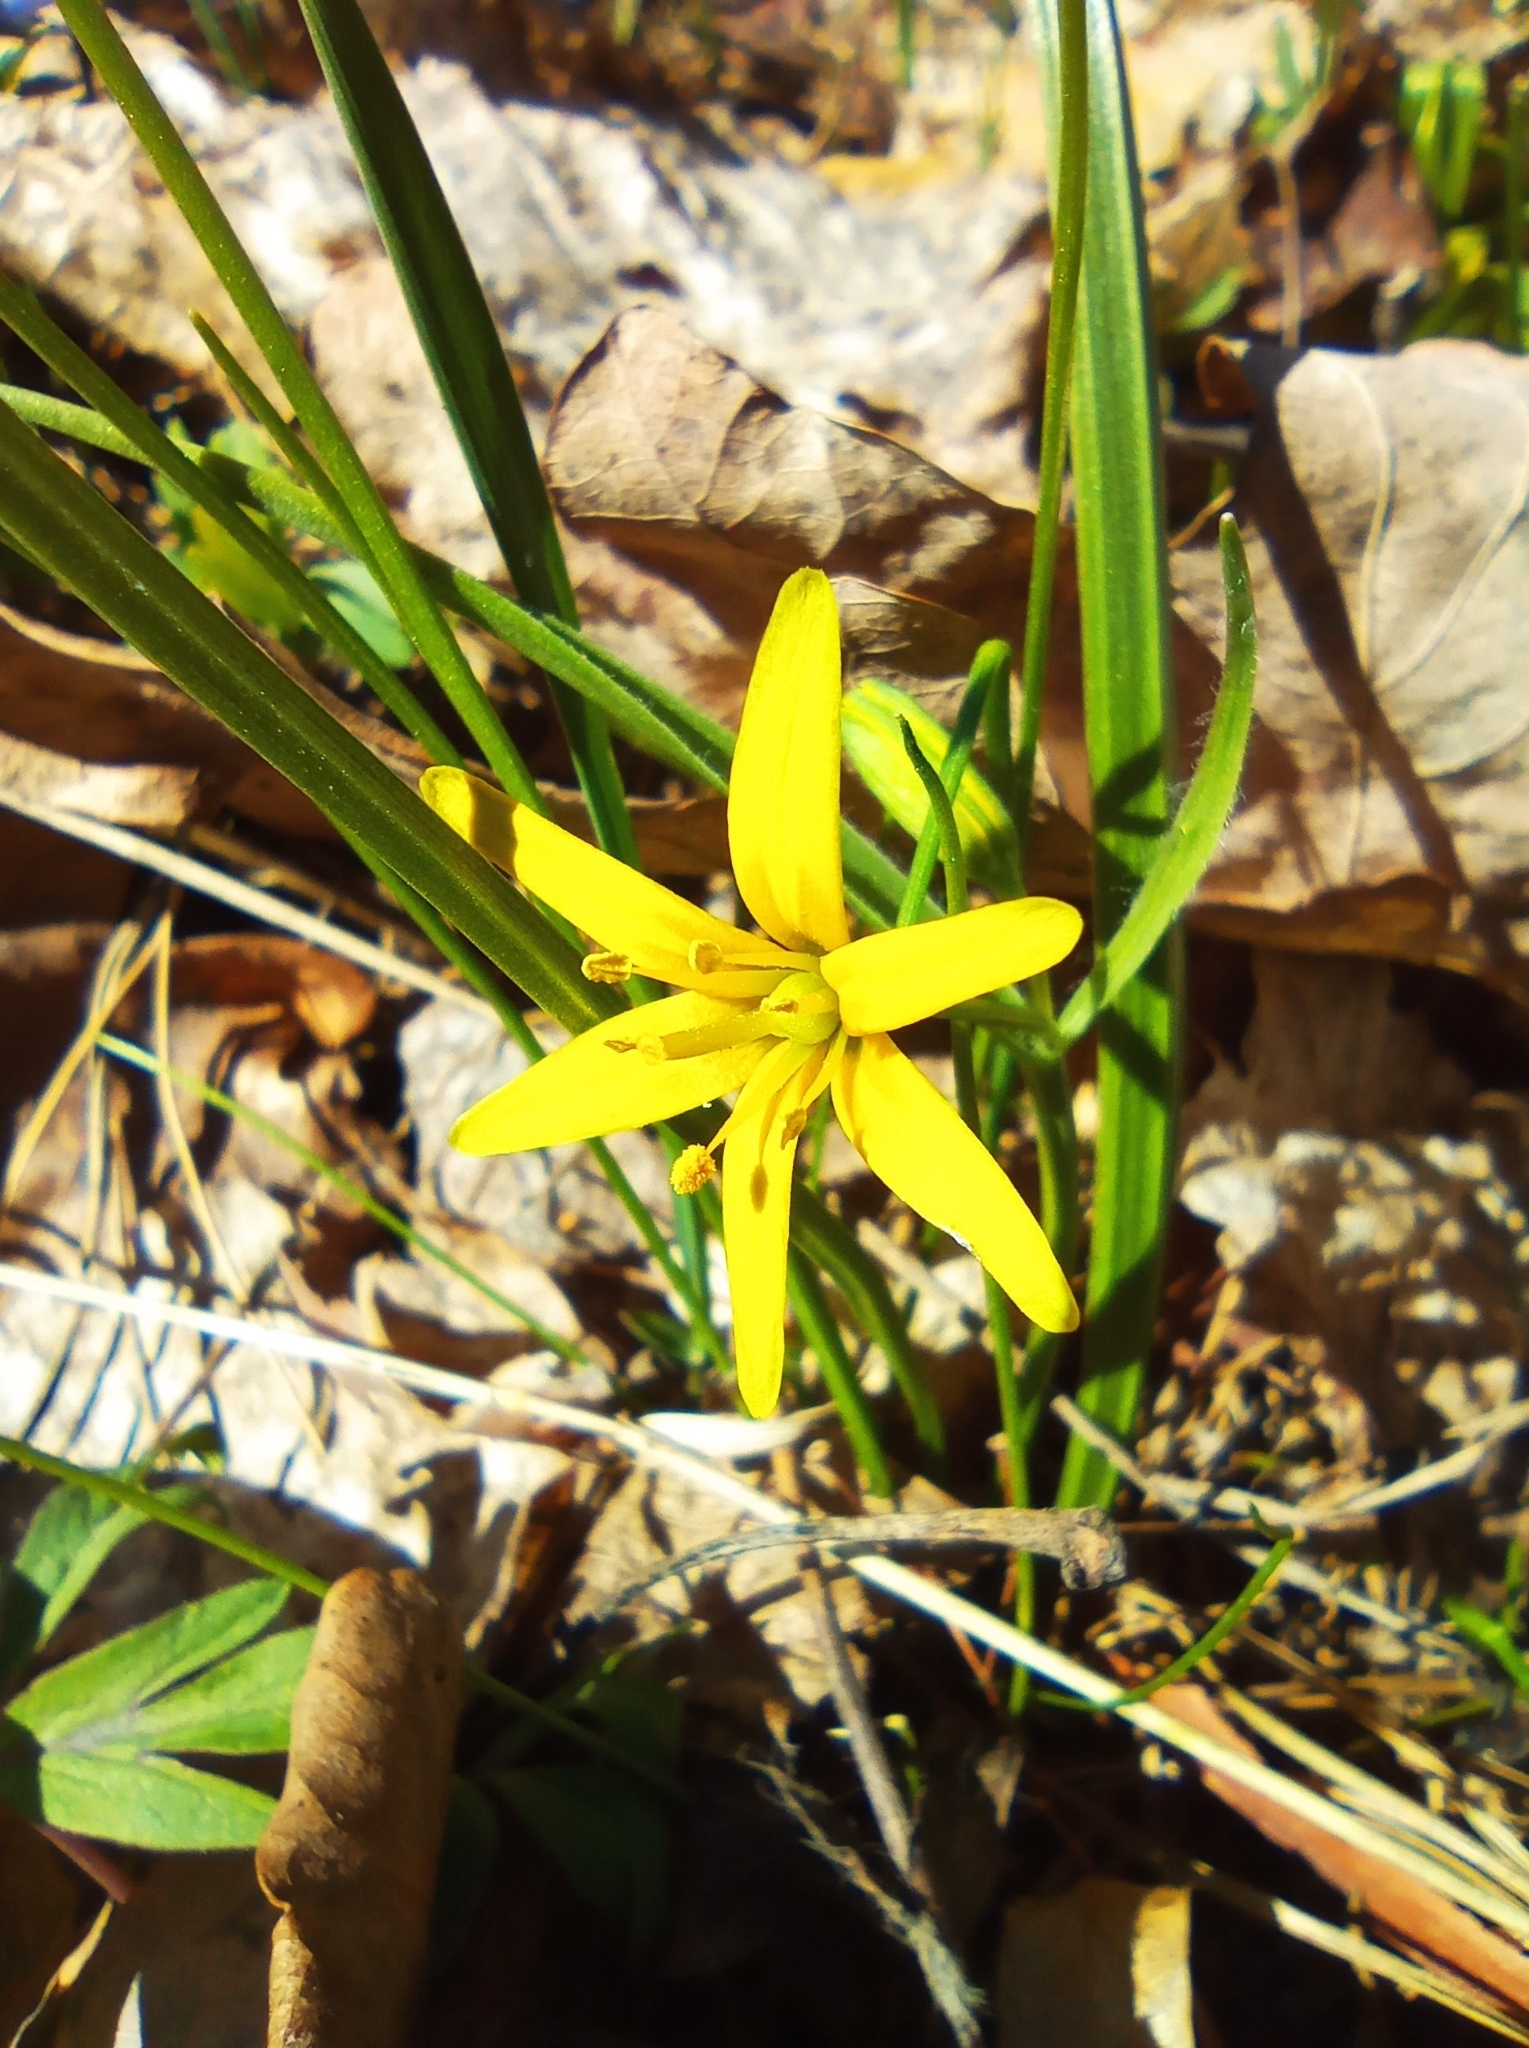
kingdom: Plantae
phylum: Tracheophyta
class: Liliopsida
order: Liliales
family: Liliaceae
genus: Gagea
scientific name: Gagea lutea
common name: Yellow star-of-bethlehem
